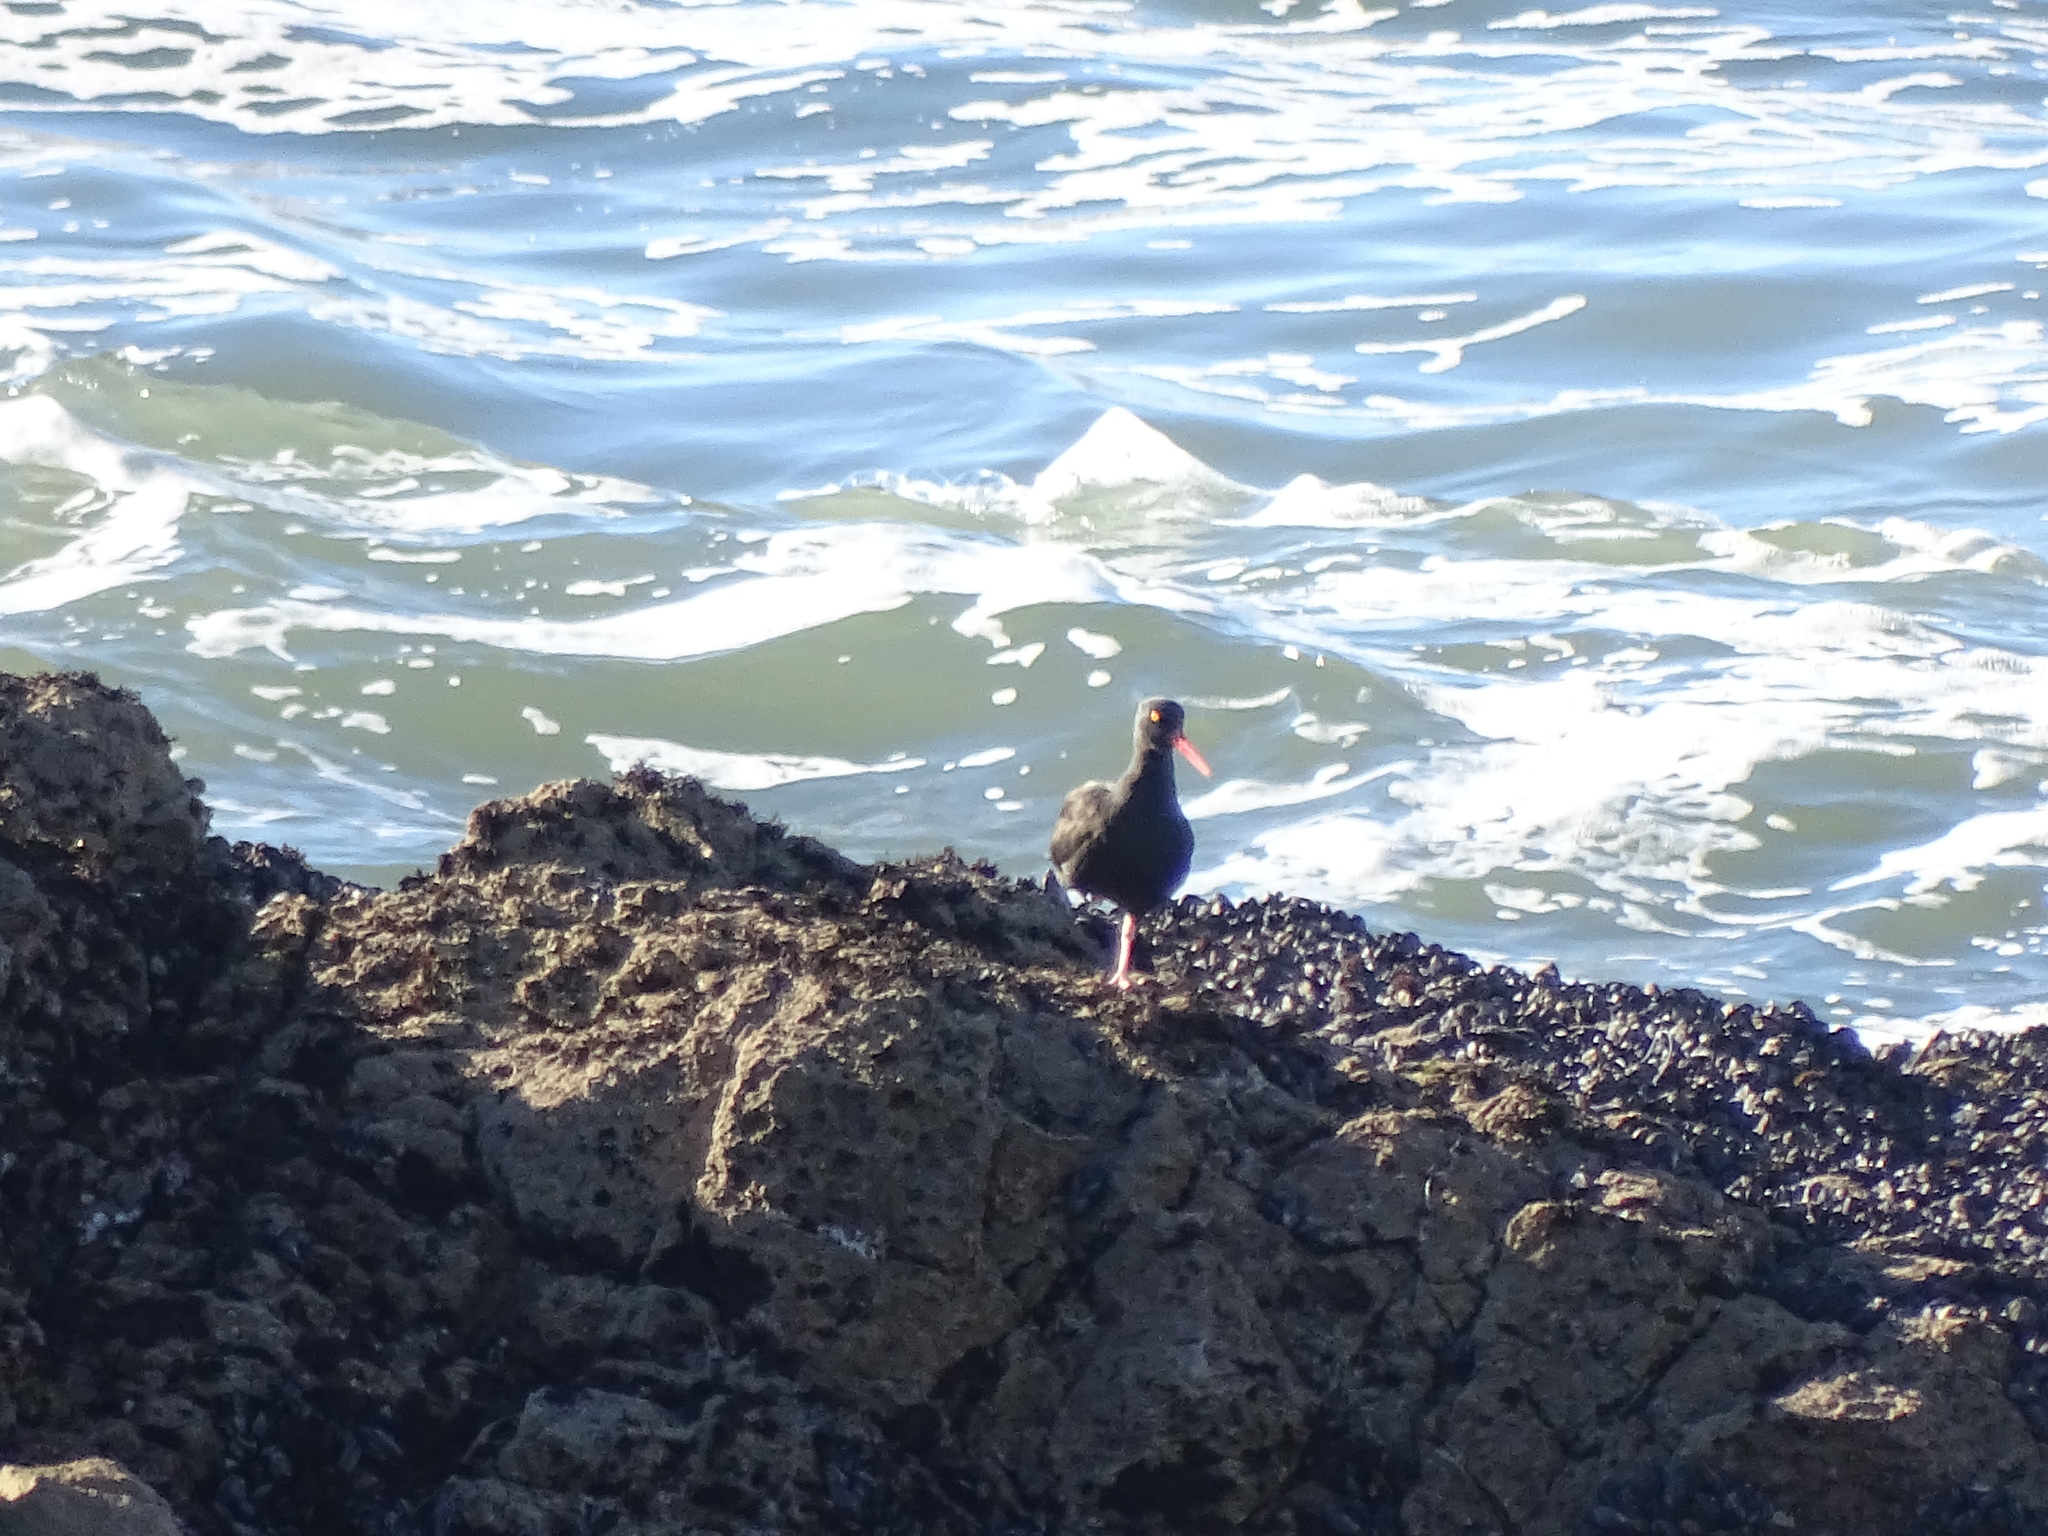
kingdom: Animalia
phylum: Chordata
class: Aves
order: Charadriiformes
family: Haematopodidae
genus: Haematopus
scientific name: Haematopus bachmani
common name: Black oystercatcher
